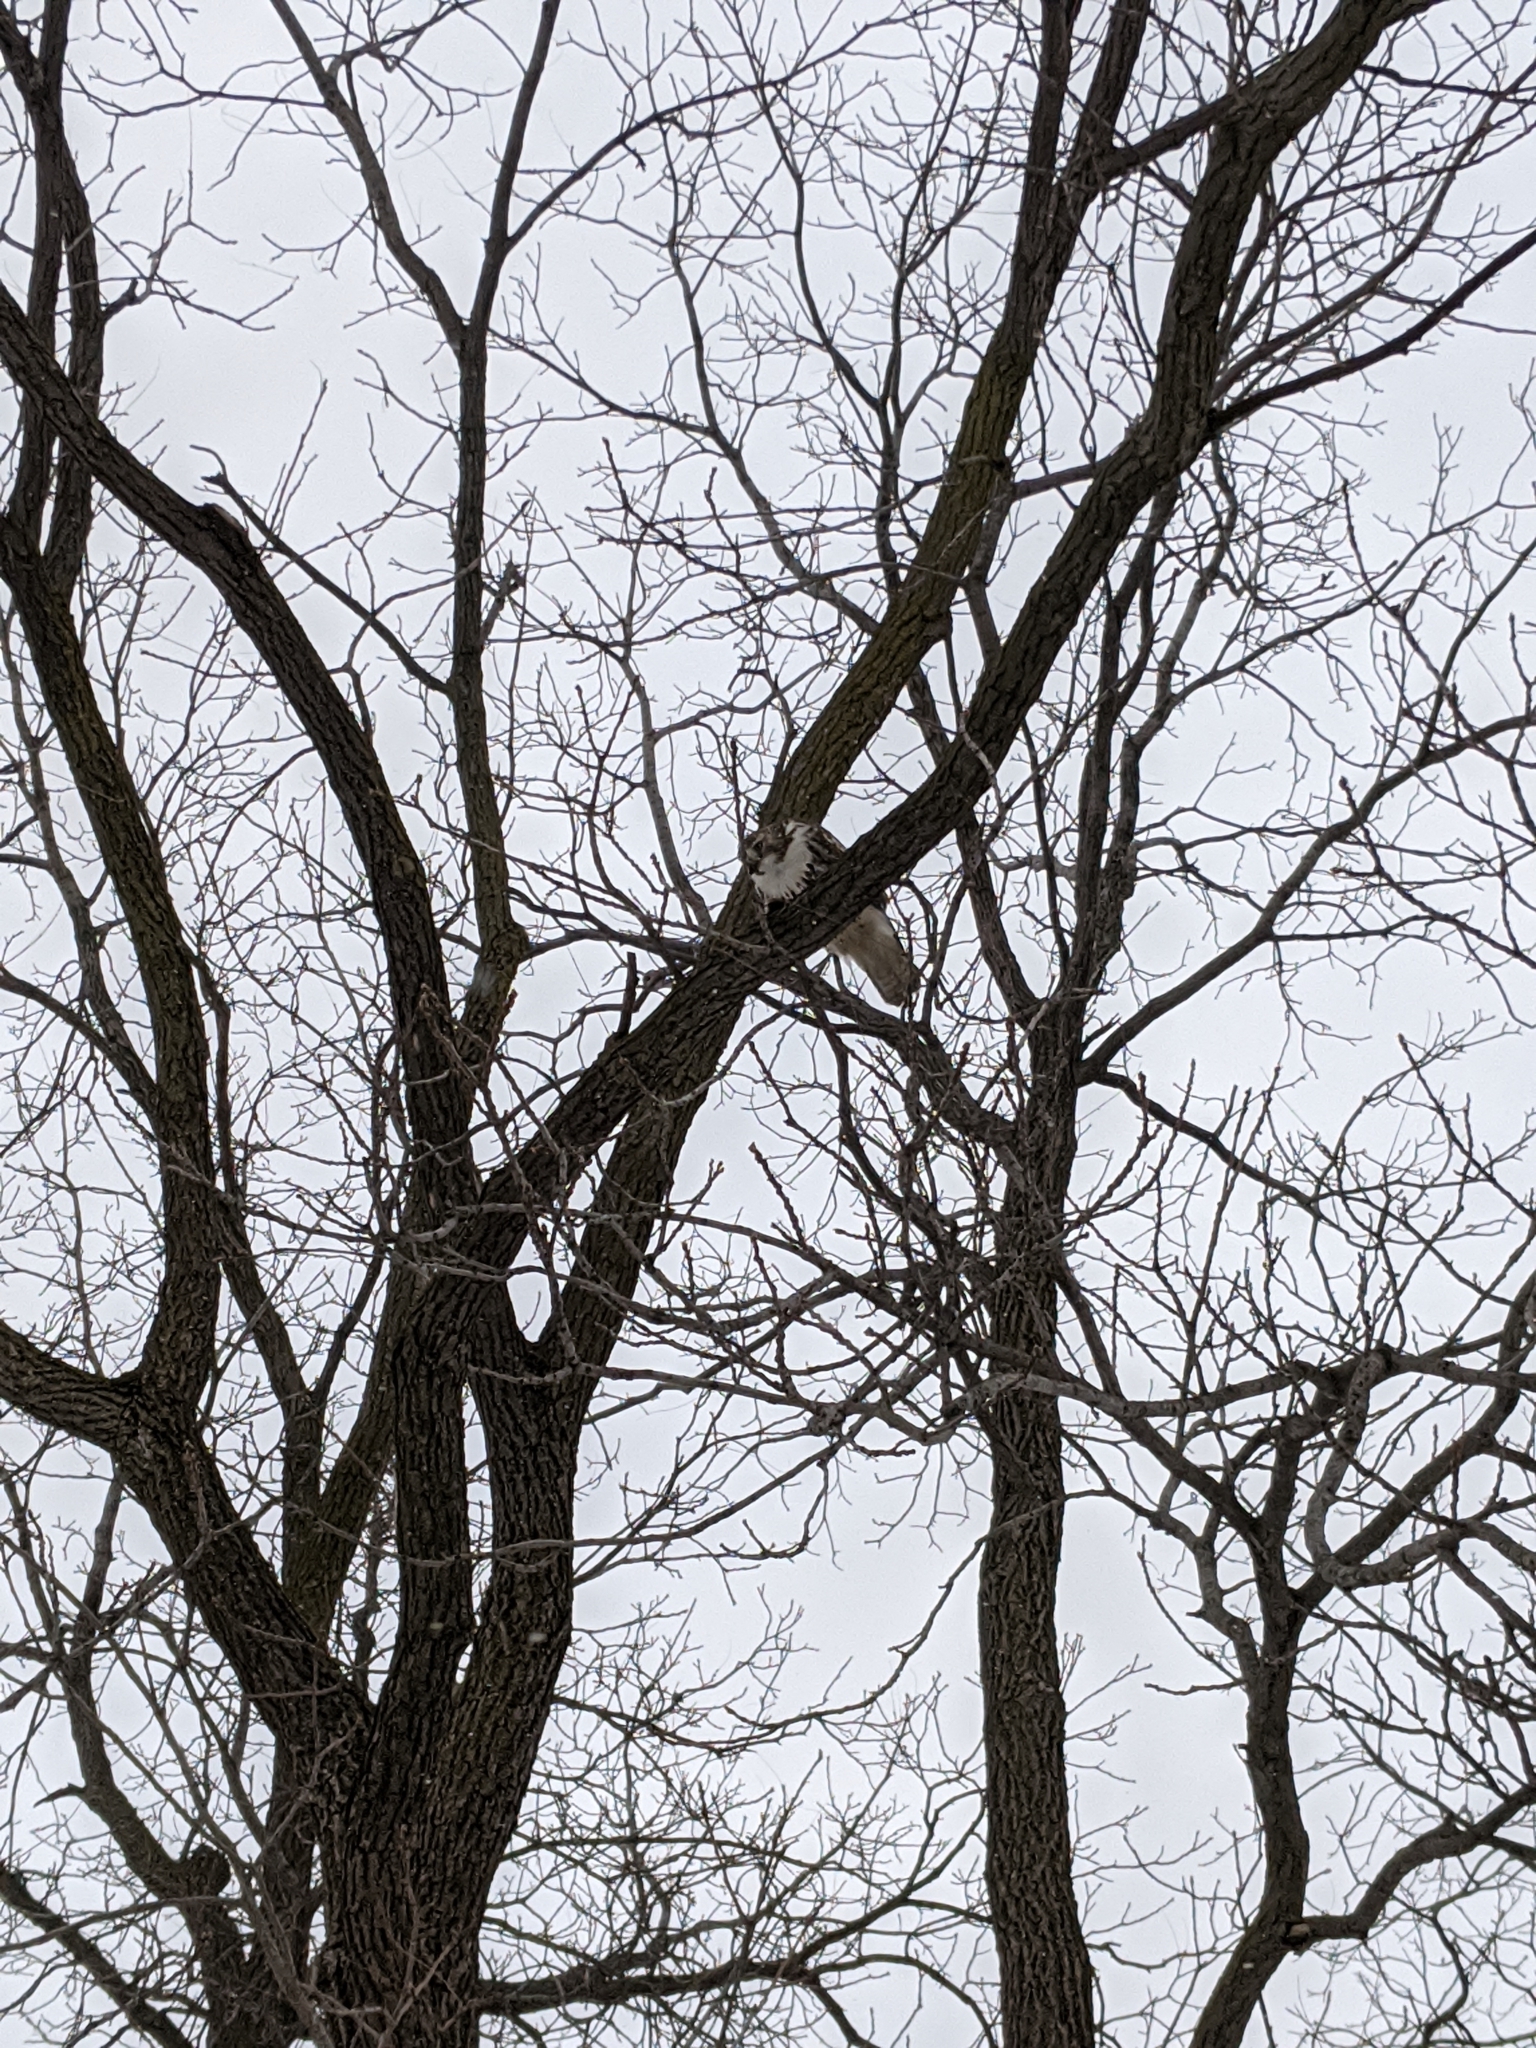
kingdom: Animalia
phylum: Chordata
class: Aves
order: Accipitriformes
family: Accipitridae
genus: Buteo
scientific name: Buteo jamaicensis
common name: Red-tailed hawk
